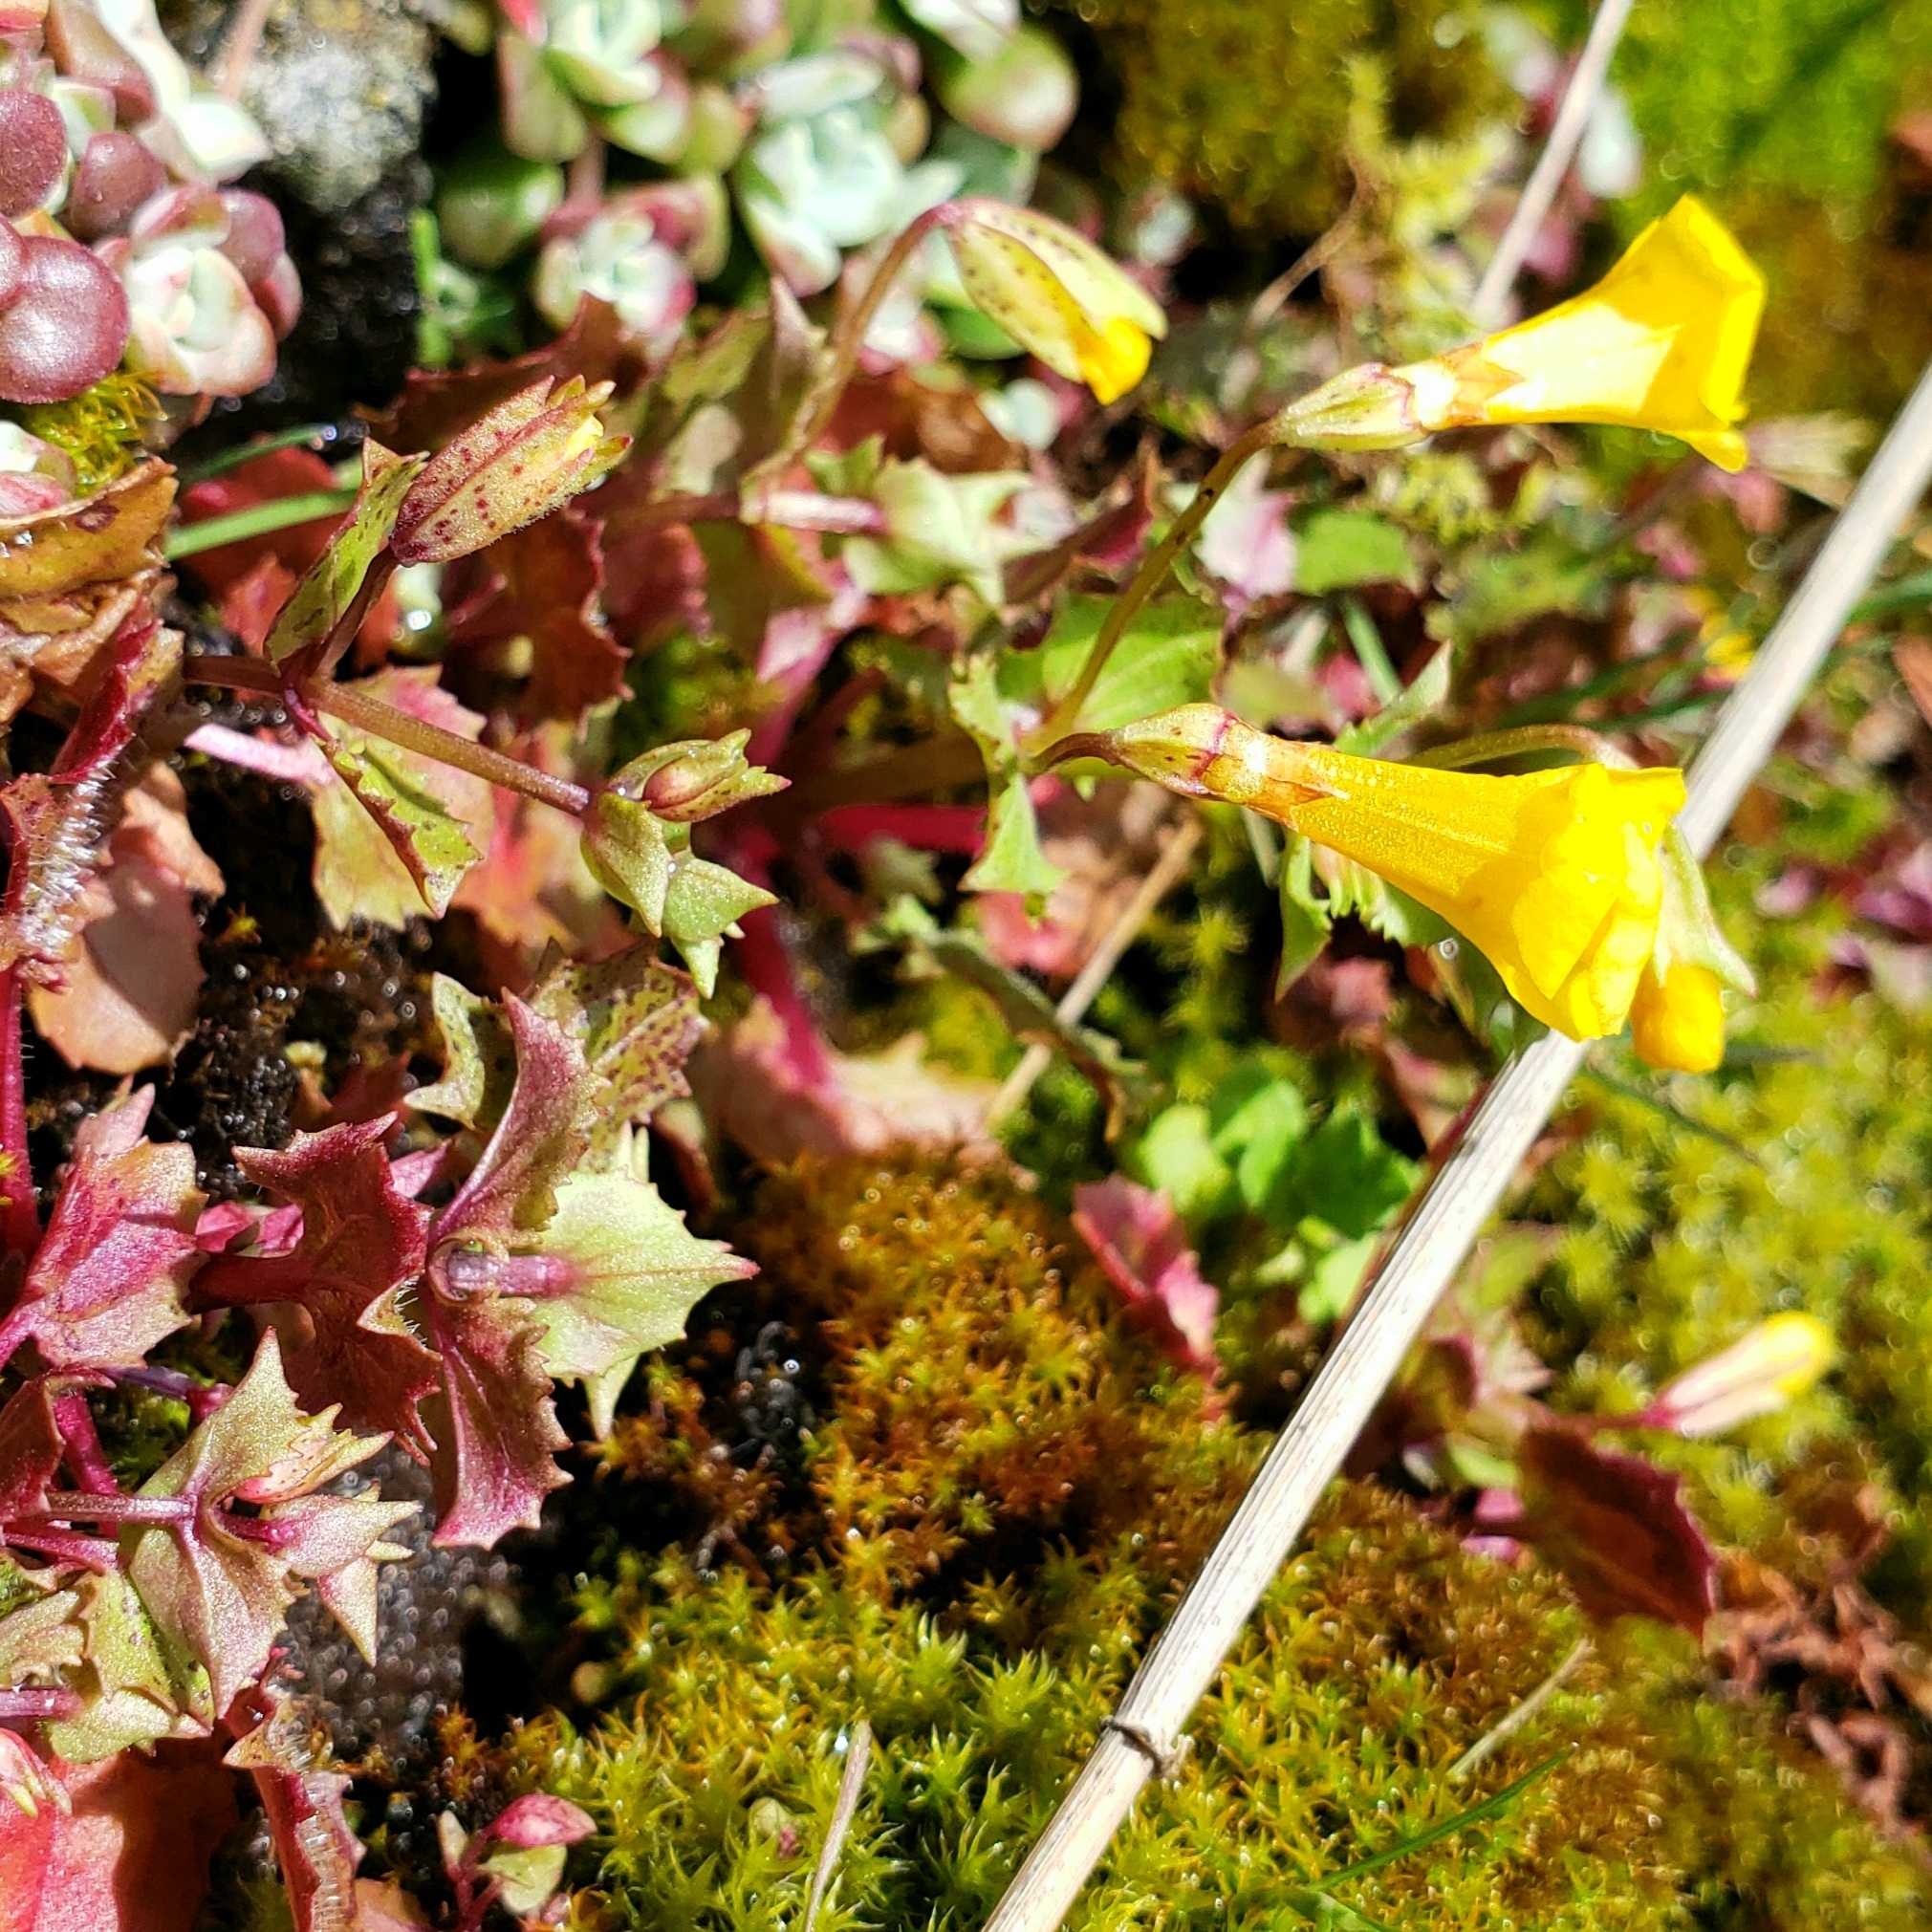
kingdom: Plantae
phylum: Tracheophyta
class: Magnoliopsida
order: Lamiales
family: Phrymaceae
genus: Erythranthe
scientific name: Erythranthe nasuta
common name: Sooke monkeyflower
